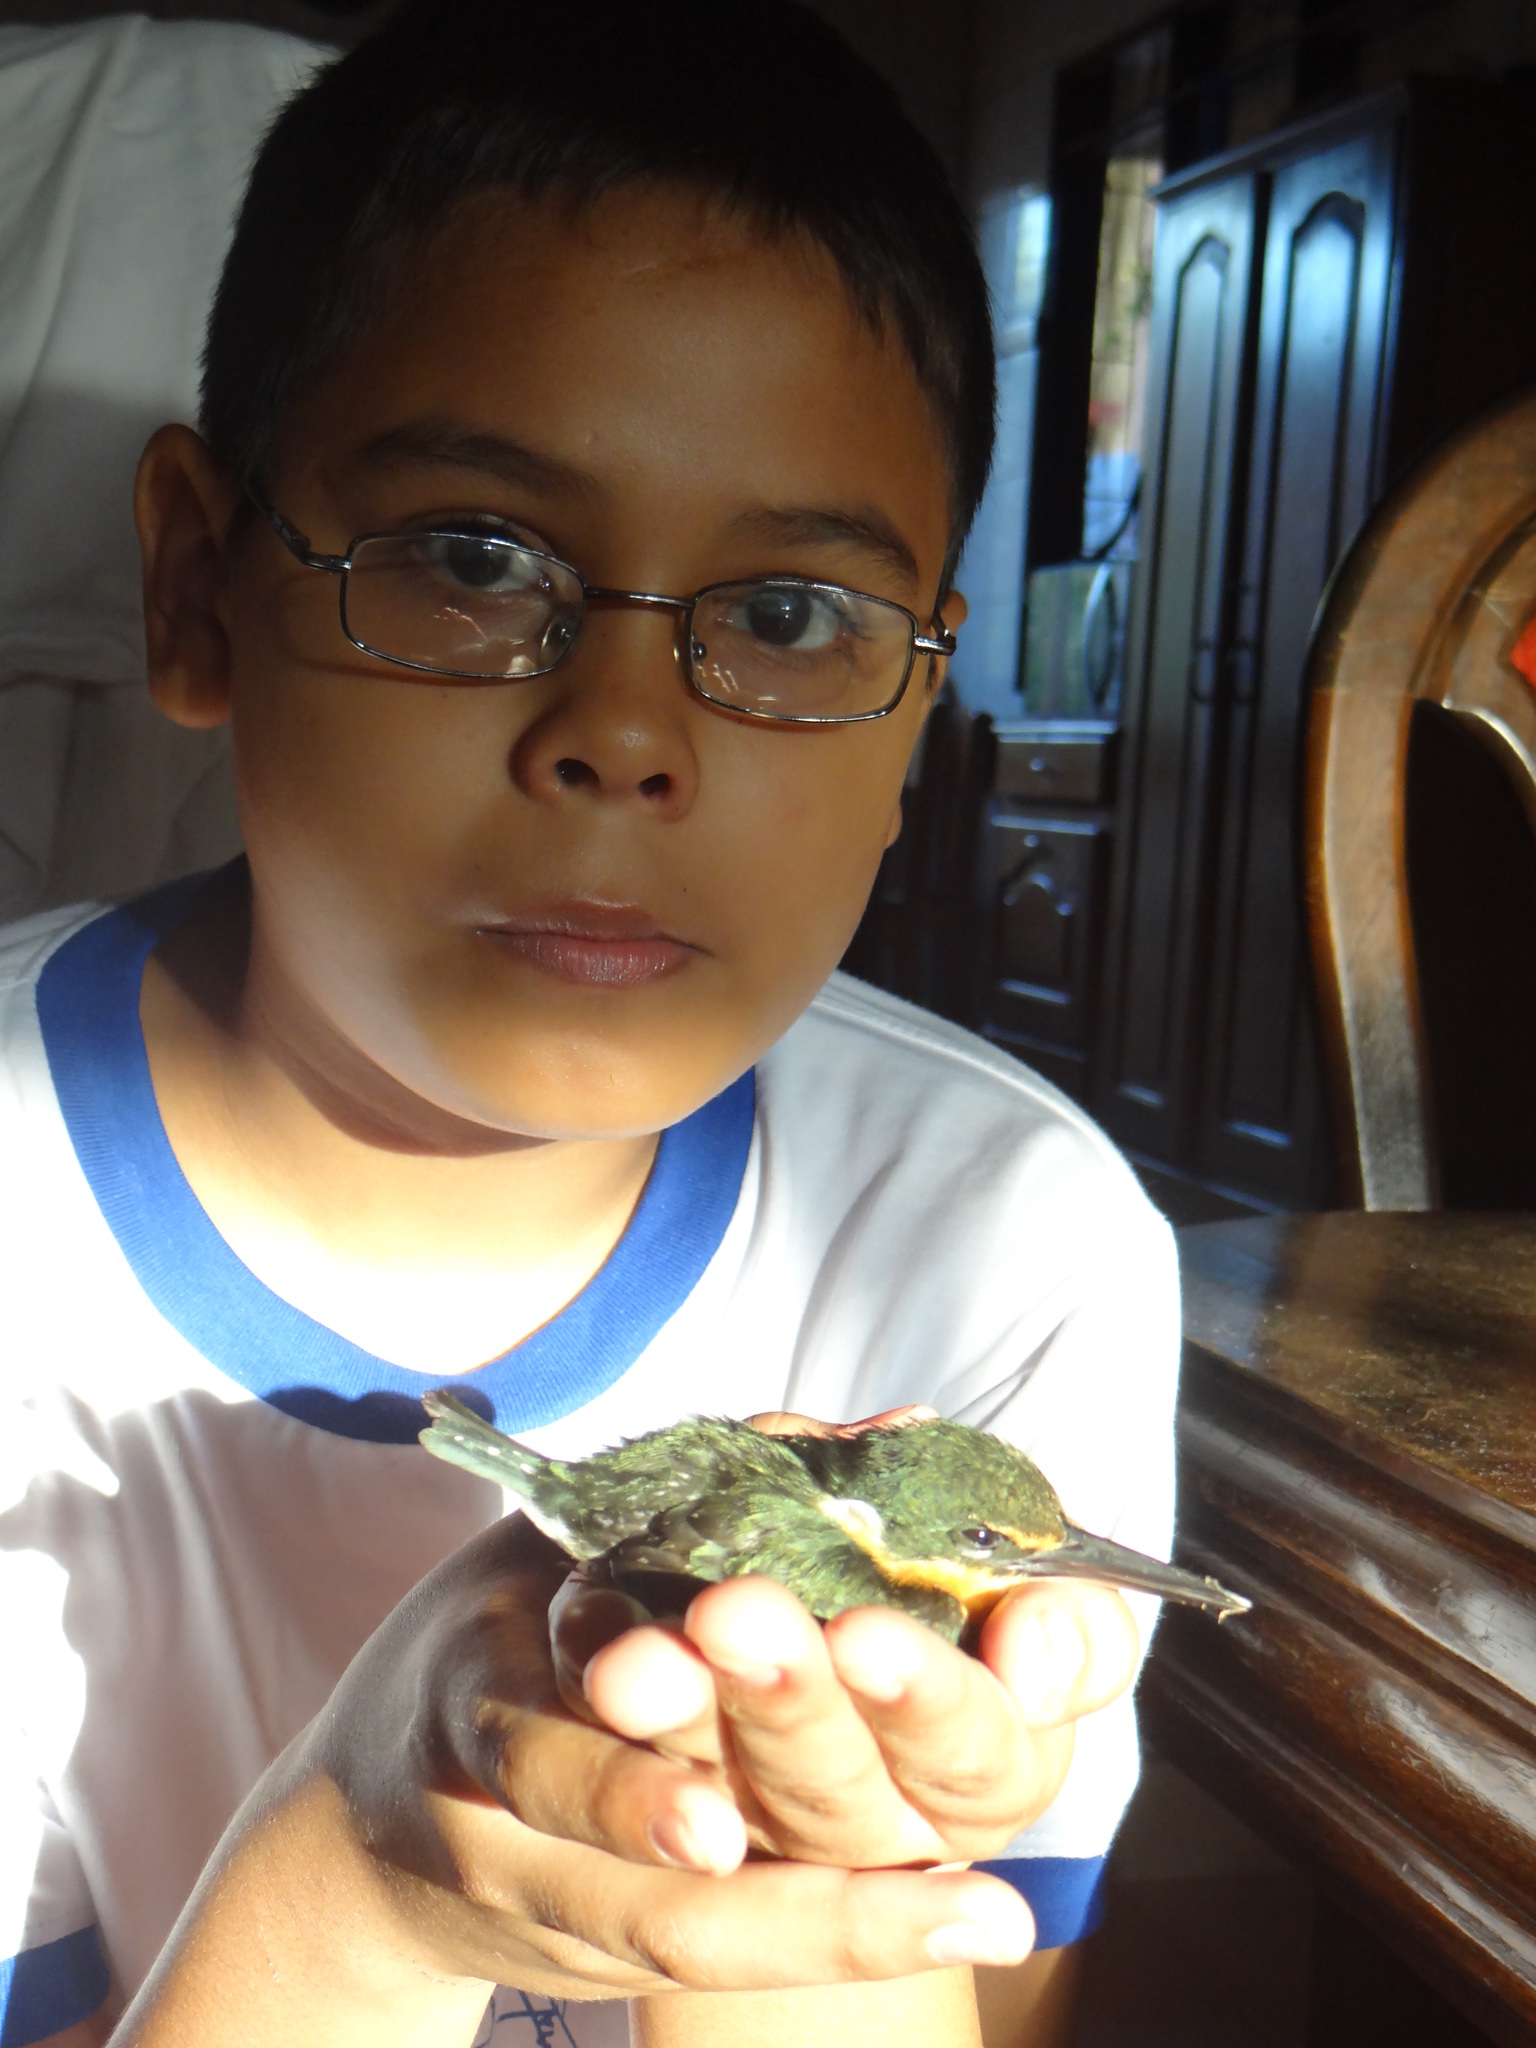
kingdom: Animalia
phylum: Chordata
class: Aves
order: Coraciiformes
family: Alcedinidae
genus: Chloroceryle
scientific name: Chloroceryle aenea
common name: American pygmy kingfisher
